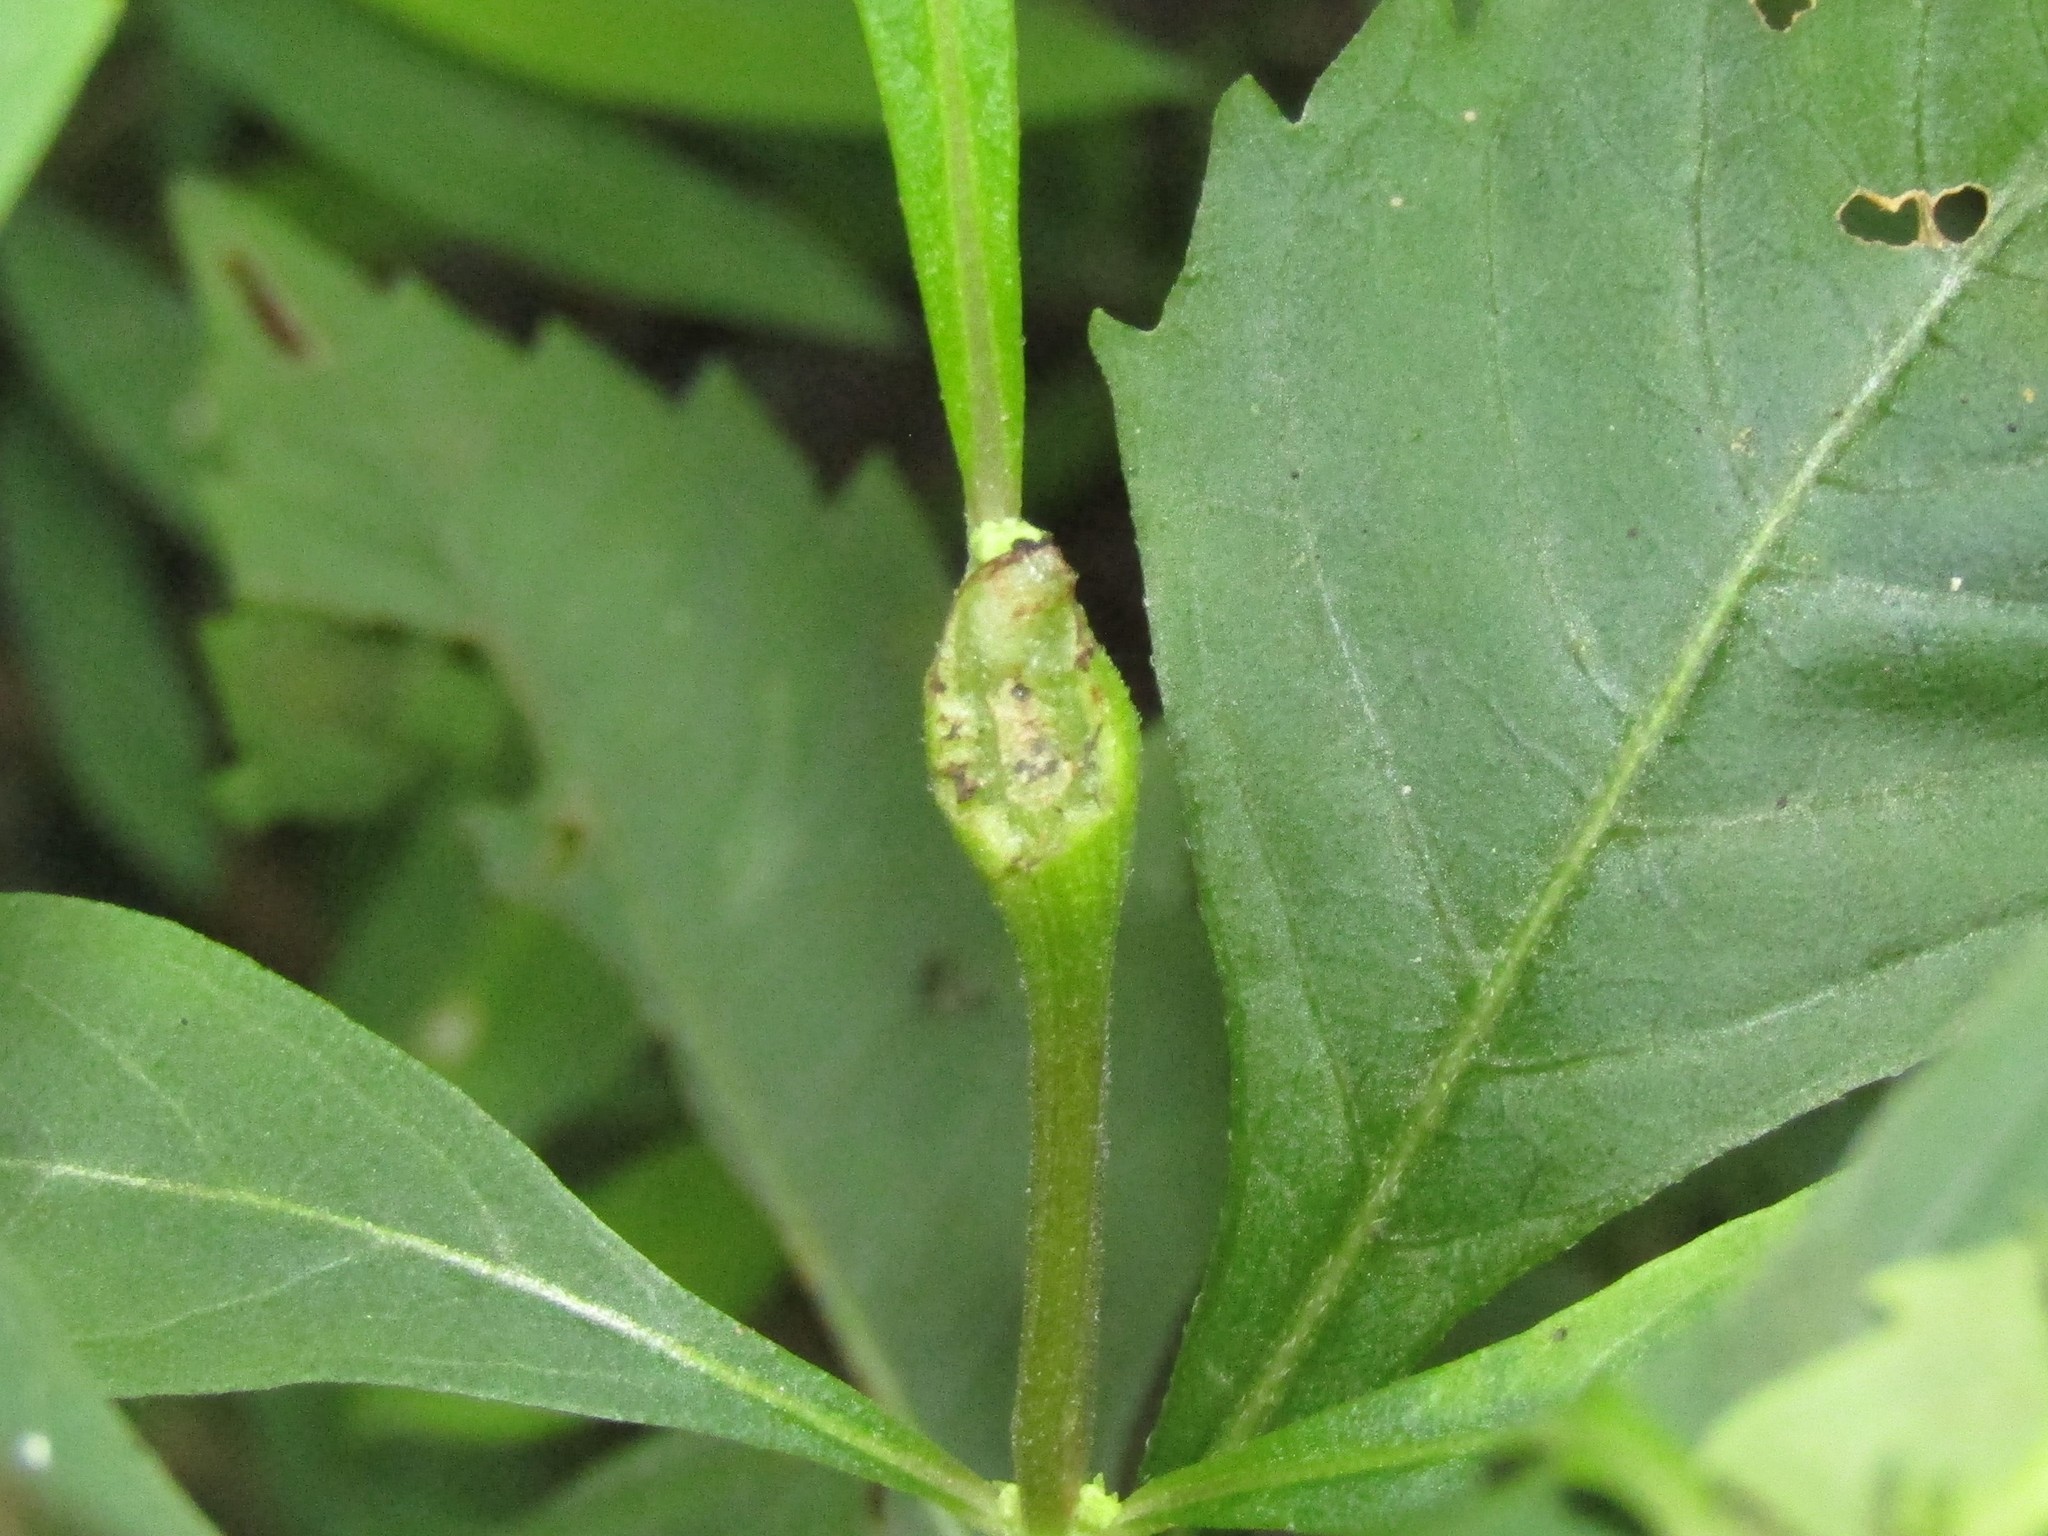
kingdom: Animalia
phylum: Arthropoda
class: Insecta
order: Diptera
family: Cecidomyiidae
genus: Neolasioptera
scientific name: Neolasioptera lycopi
